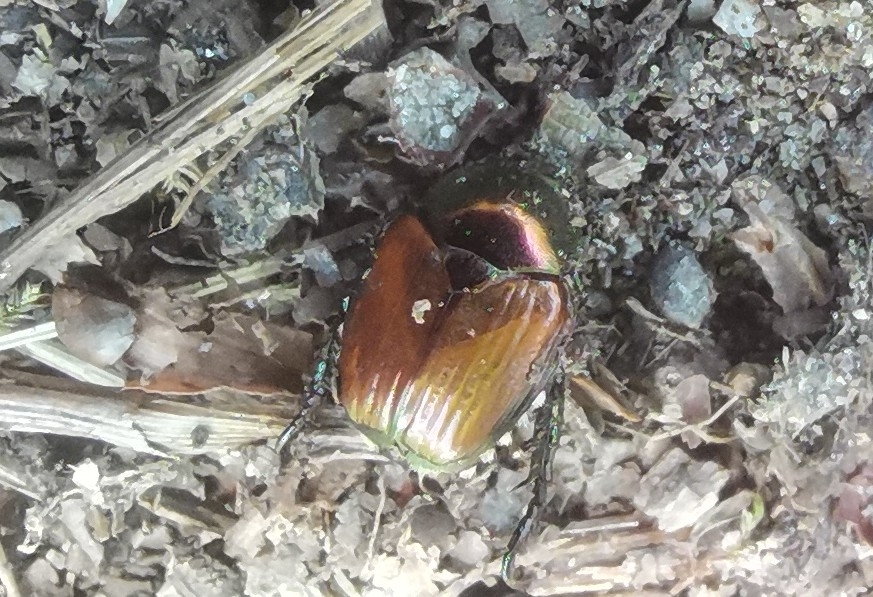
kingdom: Animalia
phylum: Arthropoda
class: Insecta
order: Coleoptera
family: Scarabaeidae
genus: Popillia
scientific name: Popillia japonica
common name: Japanese beetle
